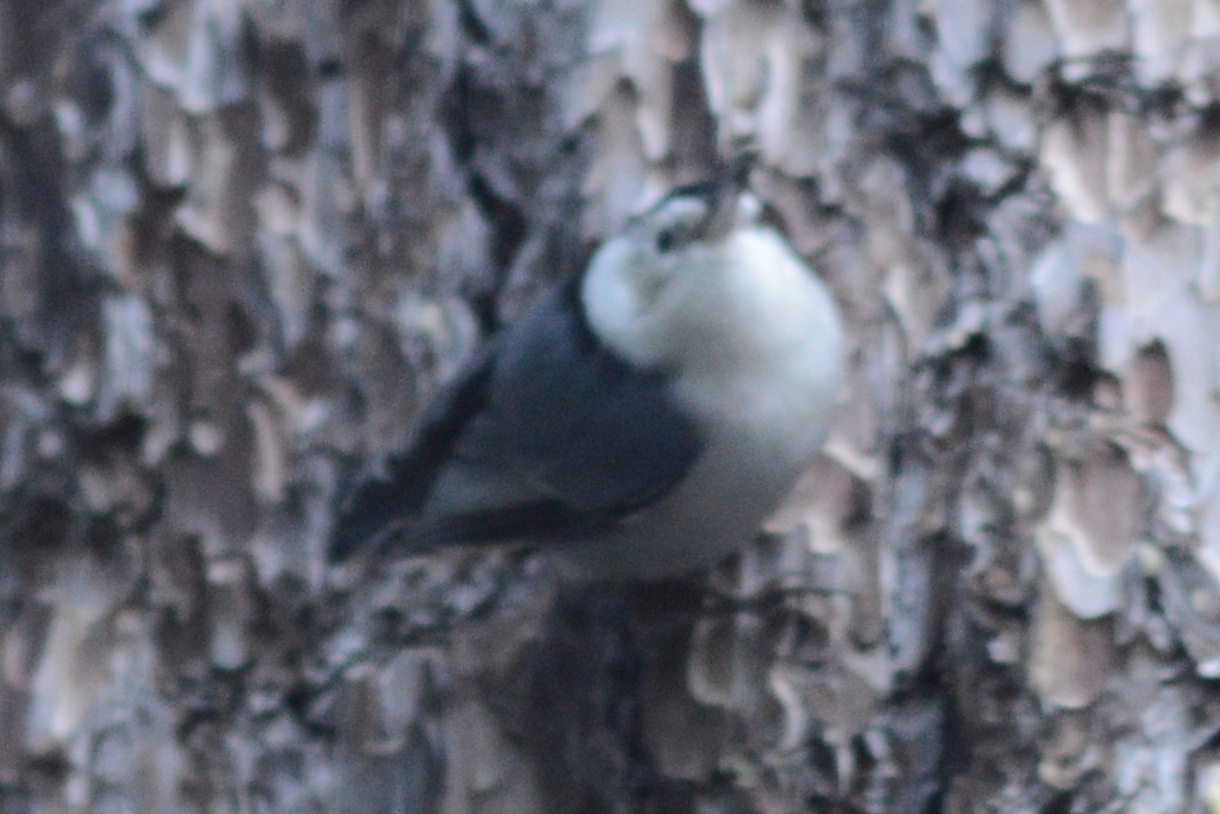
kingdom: Animalia
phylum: Chordata
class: Aves
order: Passeriformes
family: Sittidae
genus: Sitta
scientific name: Sitta carolinensis
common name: White-breasted nuthatch
